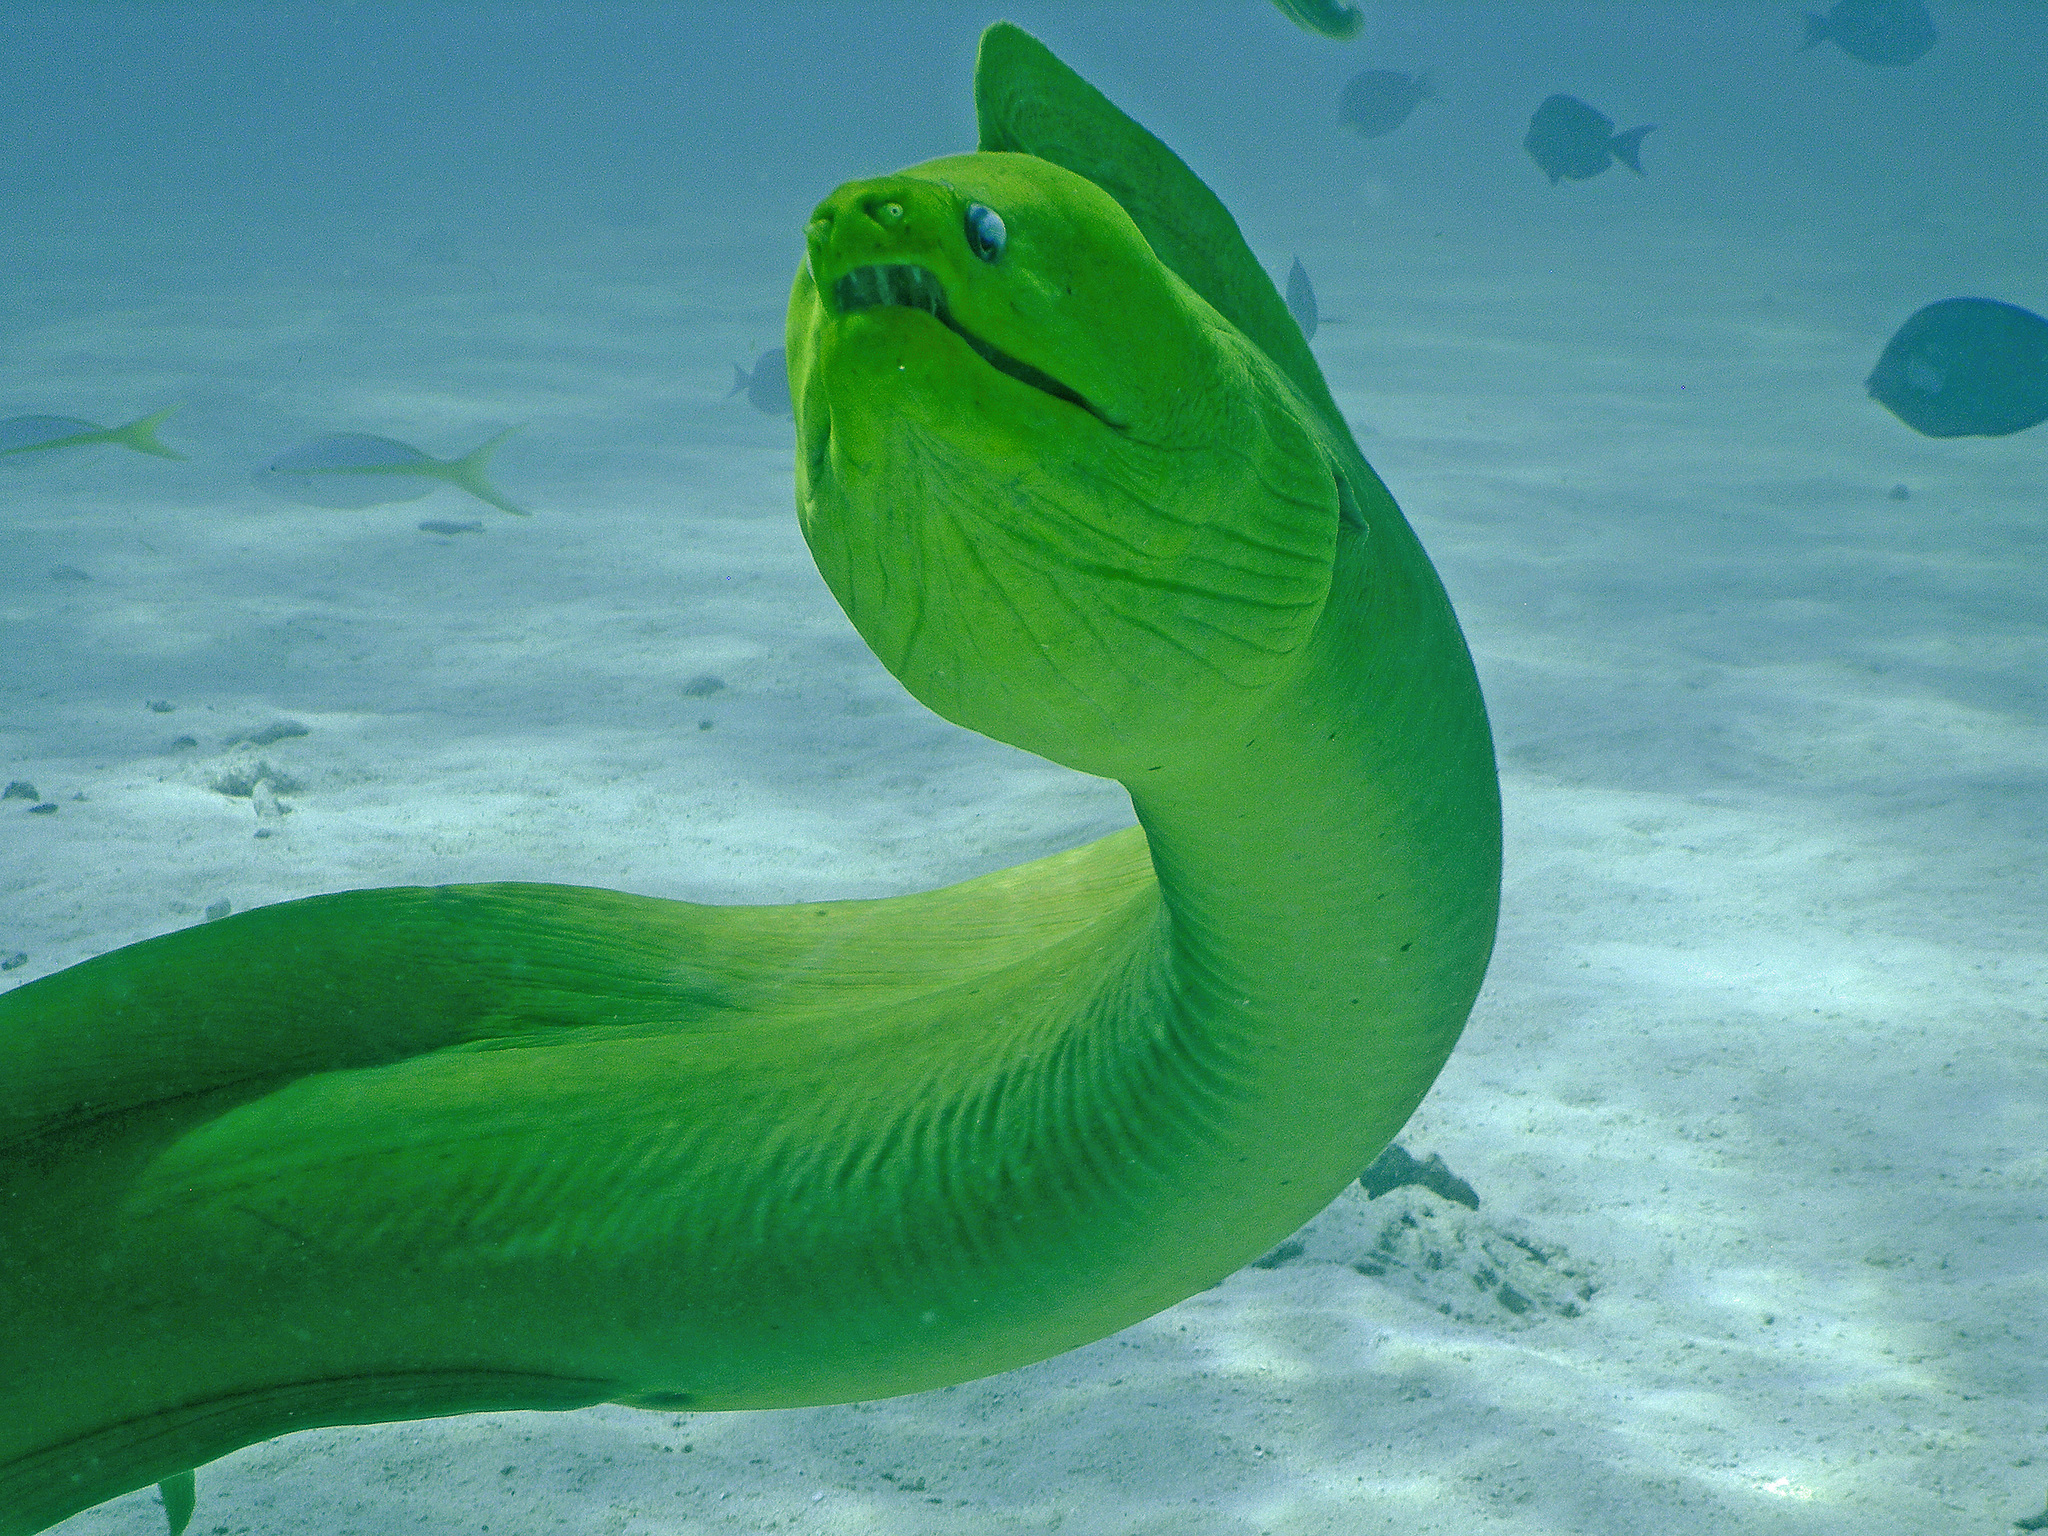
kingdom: Animalia
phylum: Chordata
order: Anguilliformes
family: Muraenidae
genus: Gymnothorax
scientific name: Gymnothorax funebris
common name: Green moray
